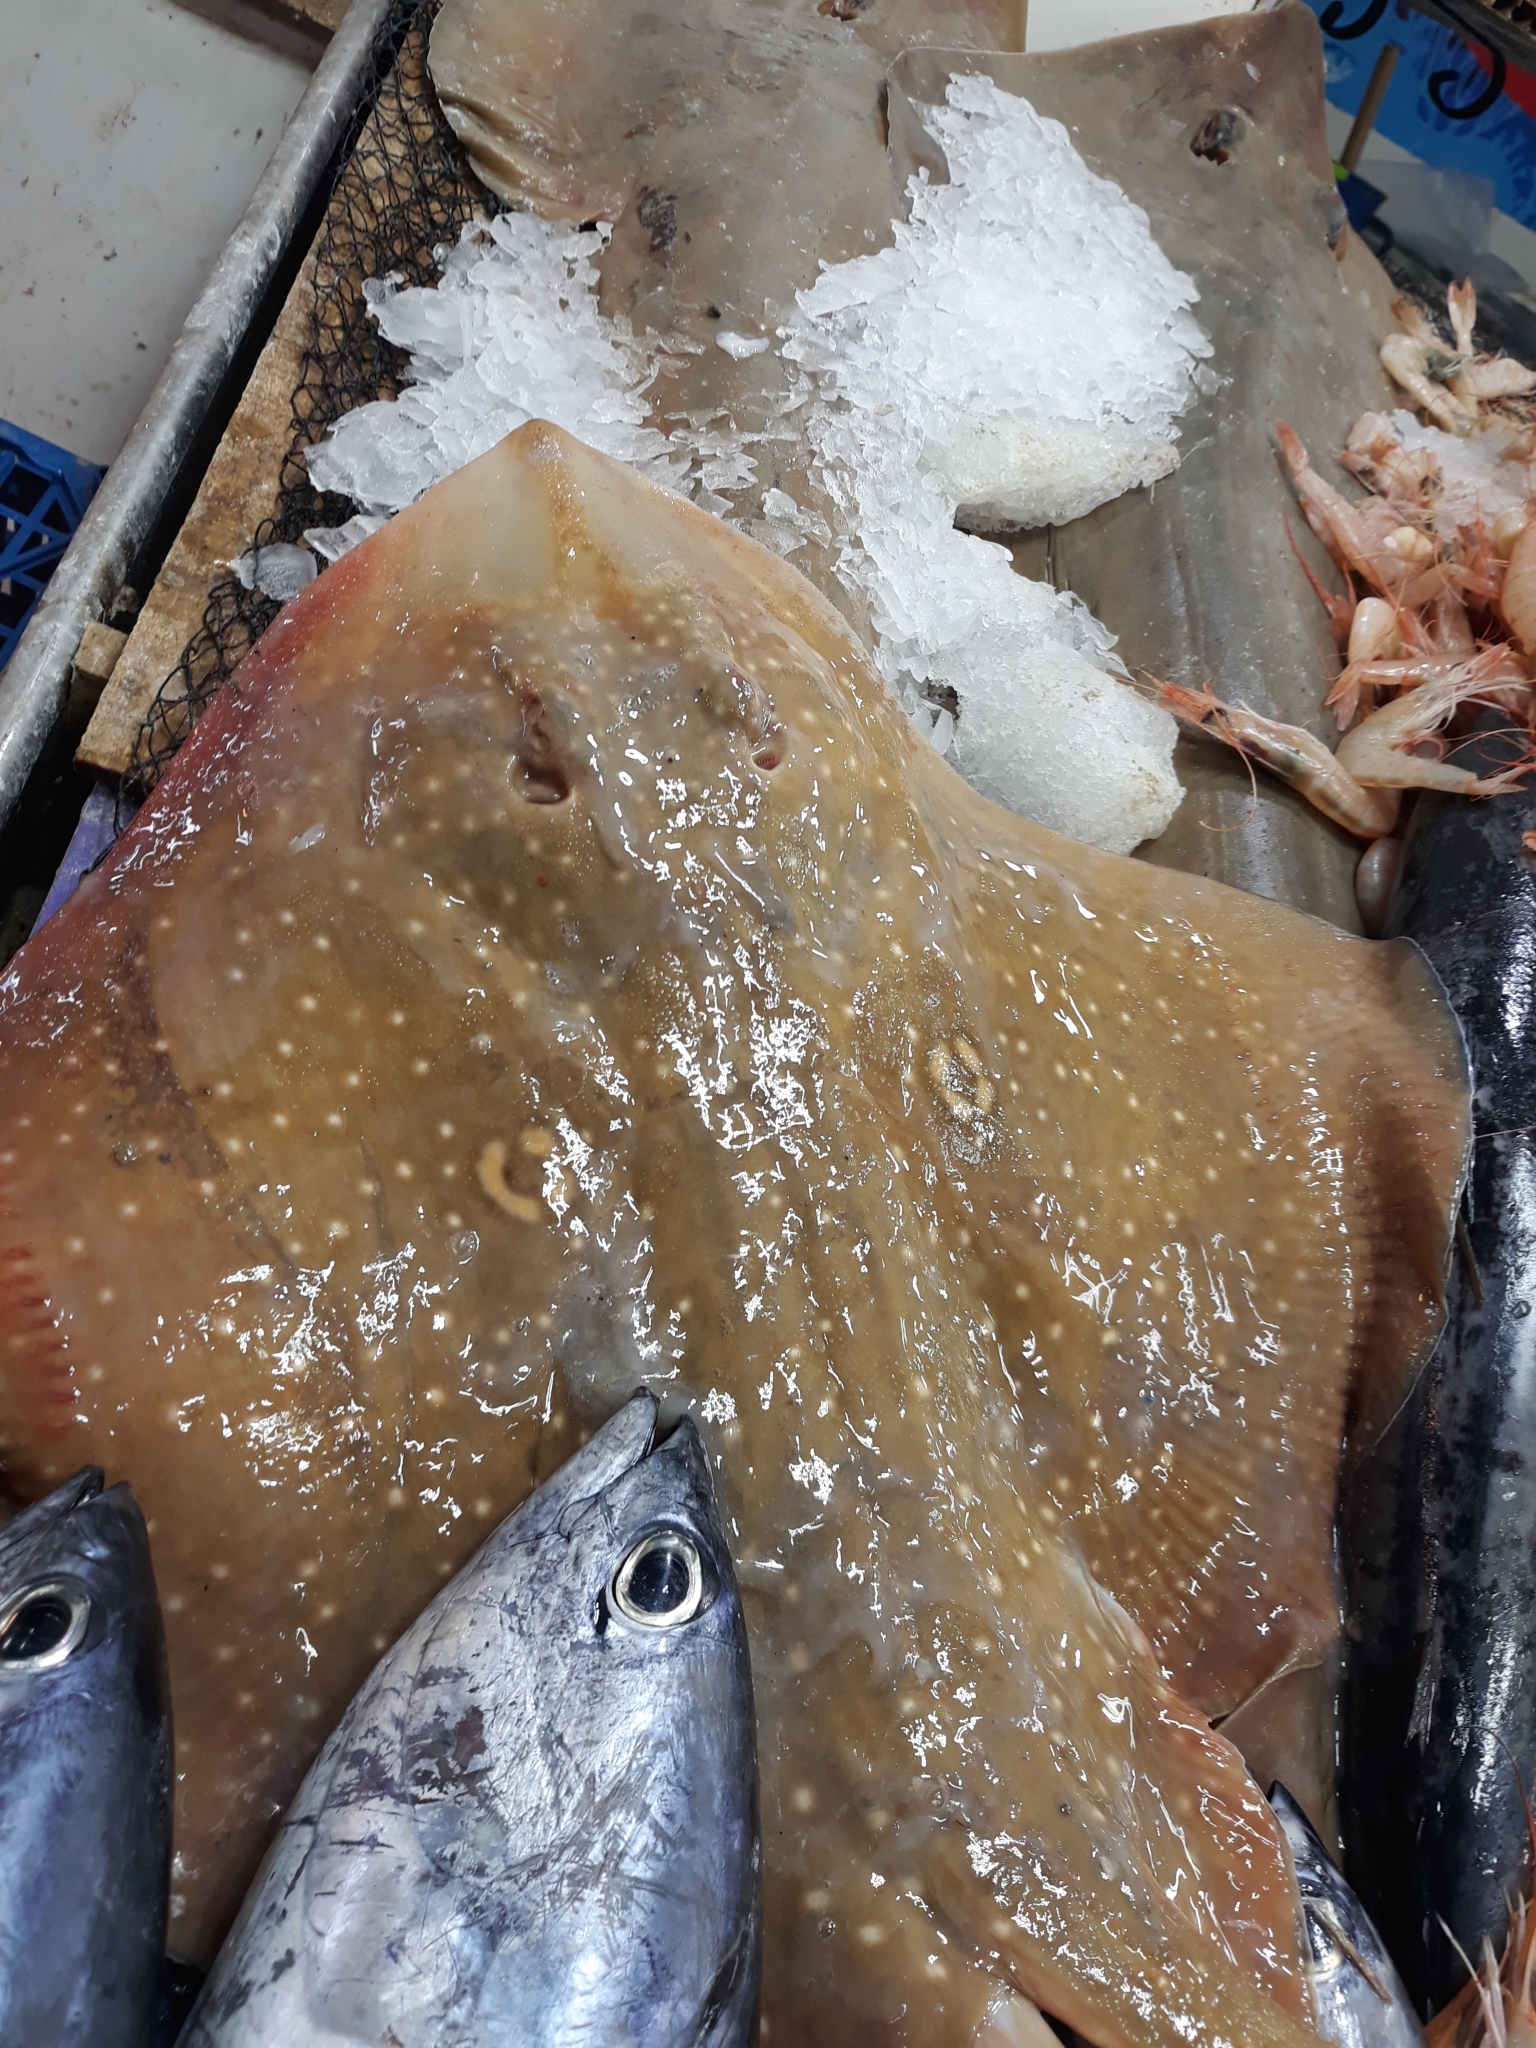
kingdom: Animalia
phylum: Chordata
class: Elasmobranchii
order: Rajiformes
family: Rajidae
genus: Raja
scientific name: Raja radula
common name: Rough ray
